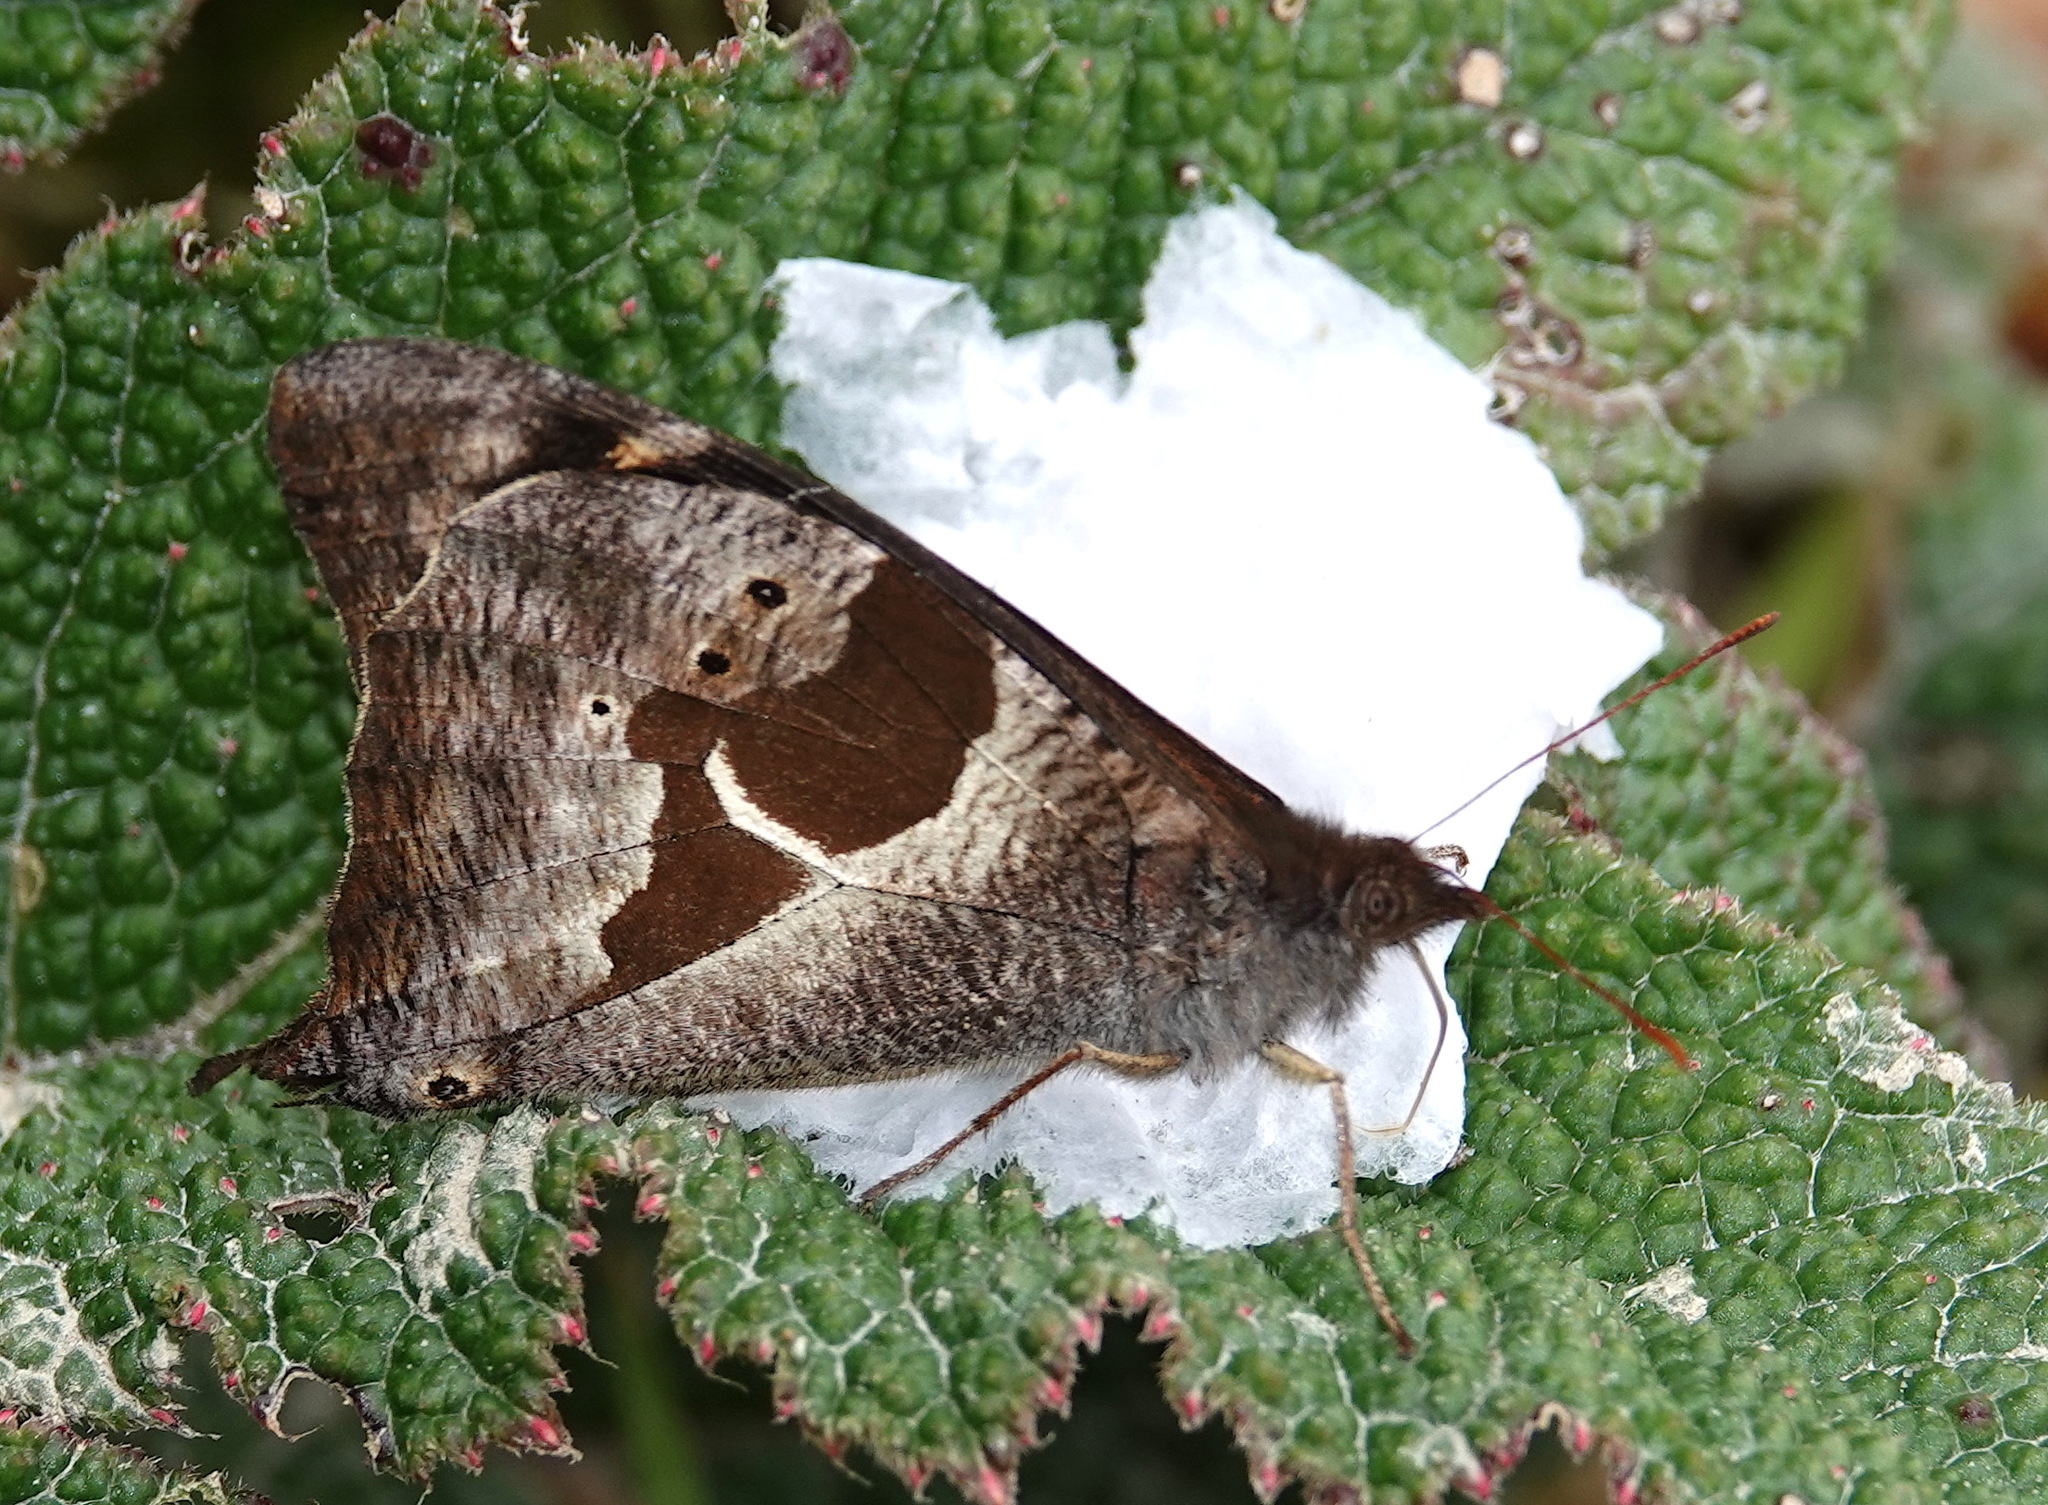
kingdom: Animalia
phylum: Arthropoda
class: Insecta
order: Lepidoptera
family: Nymphalidae
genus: Corades
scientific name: Corades cistene
